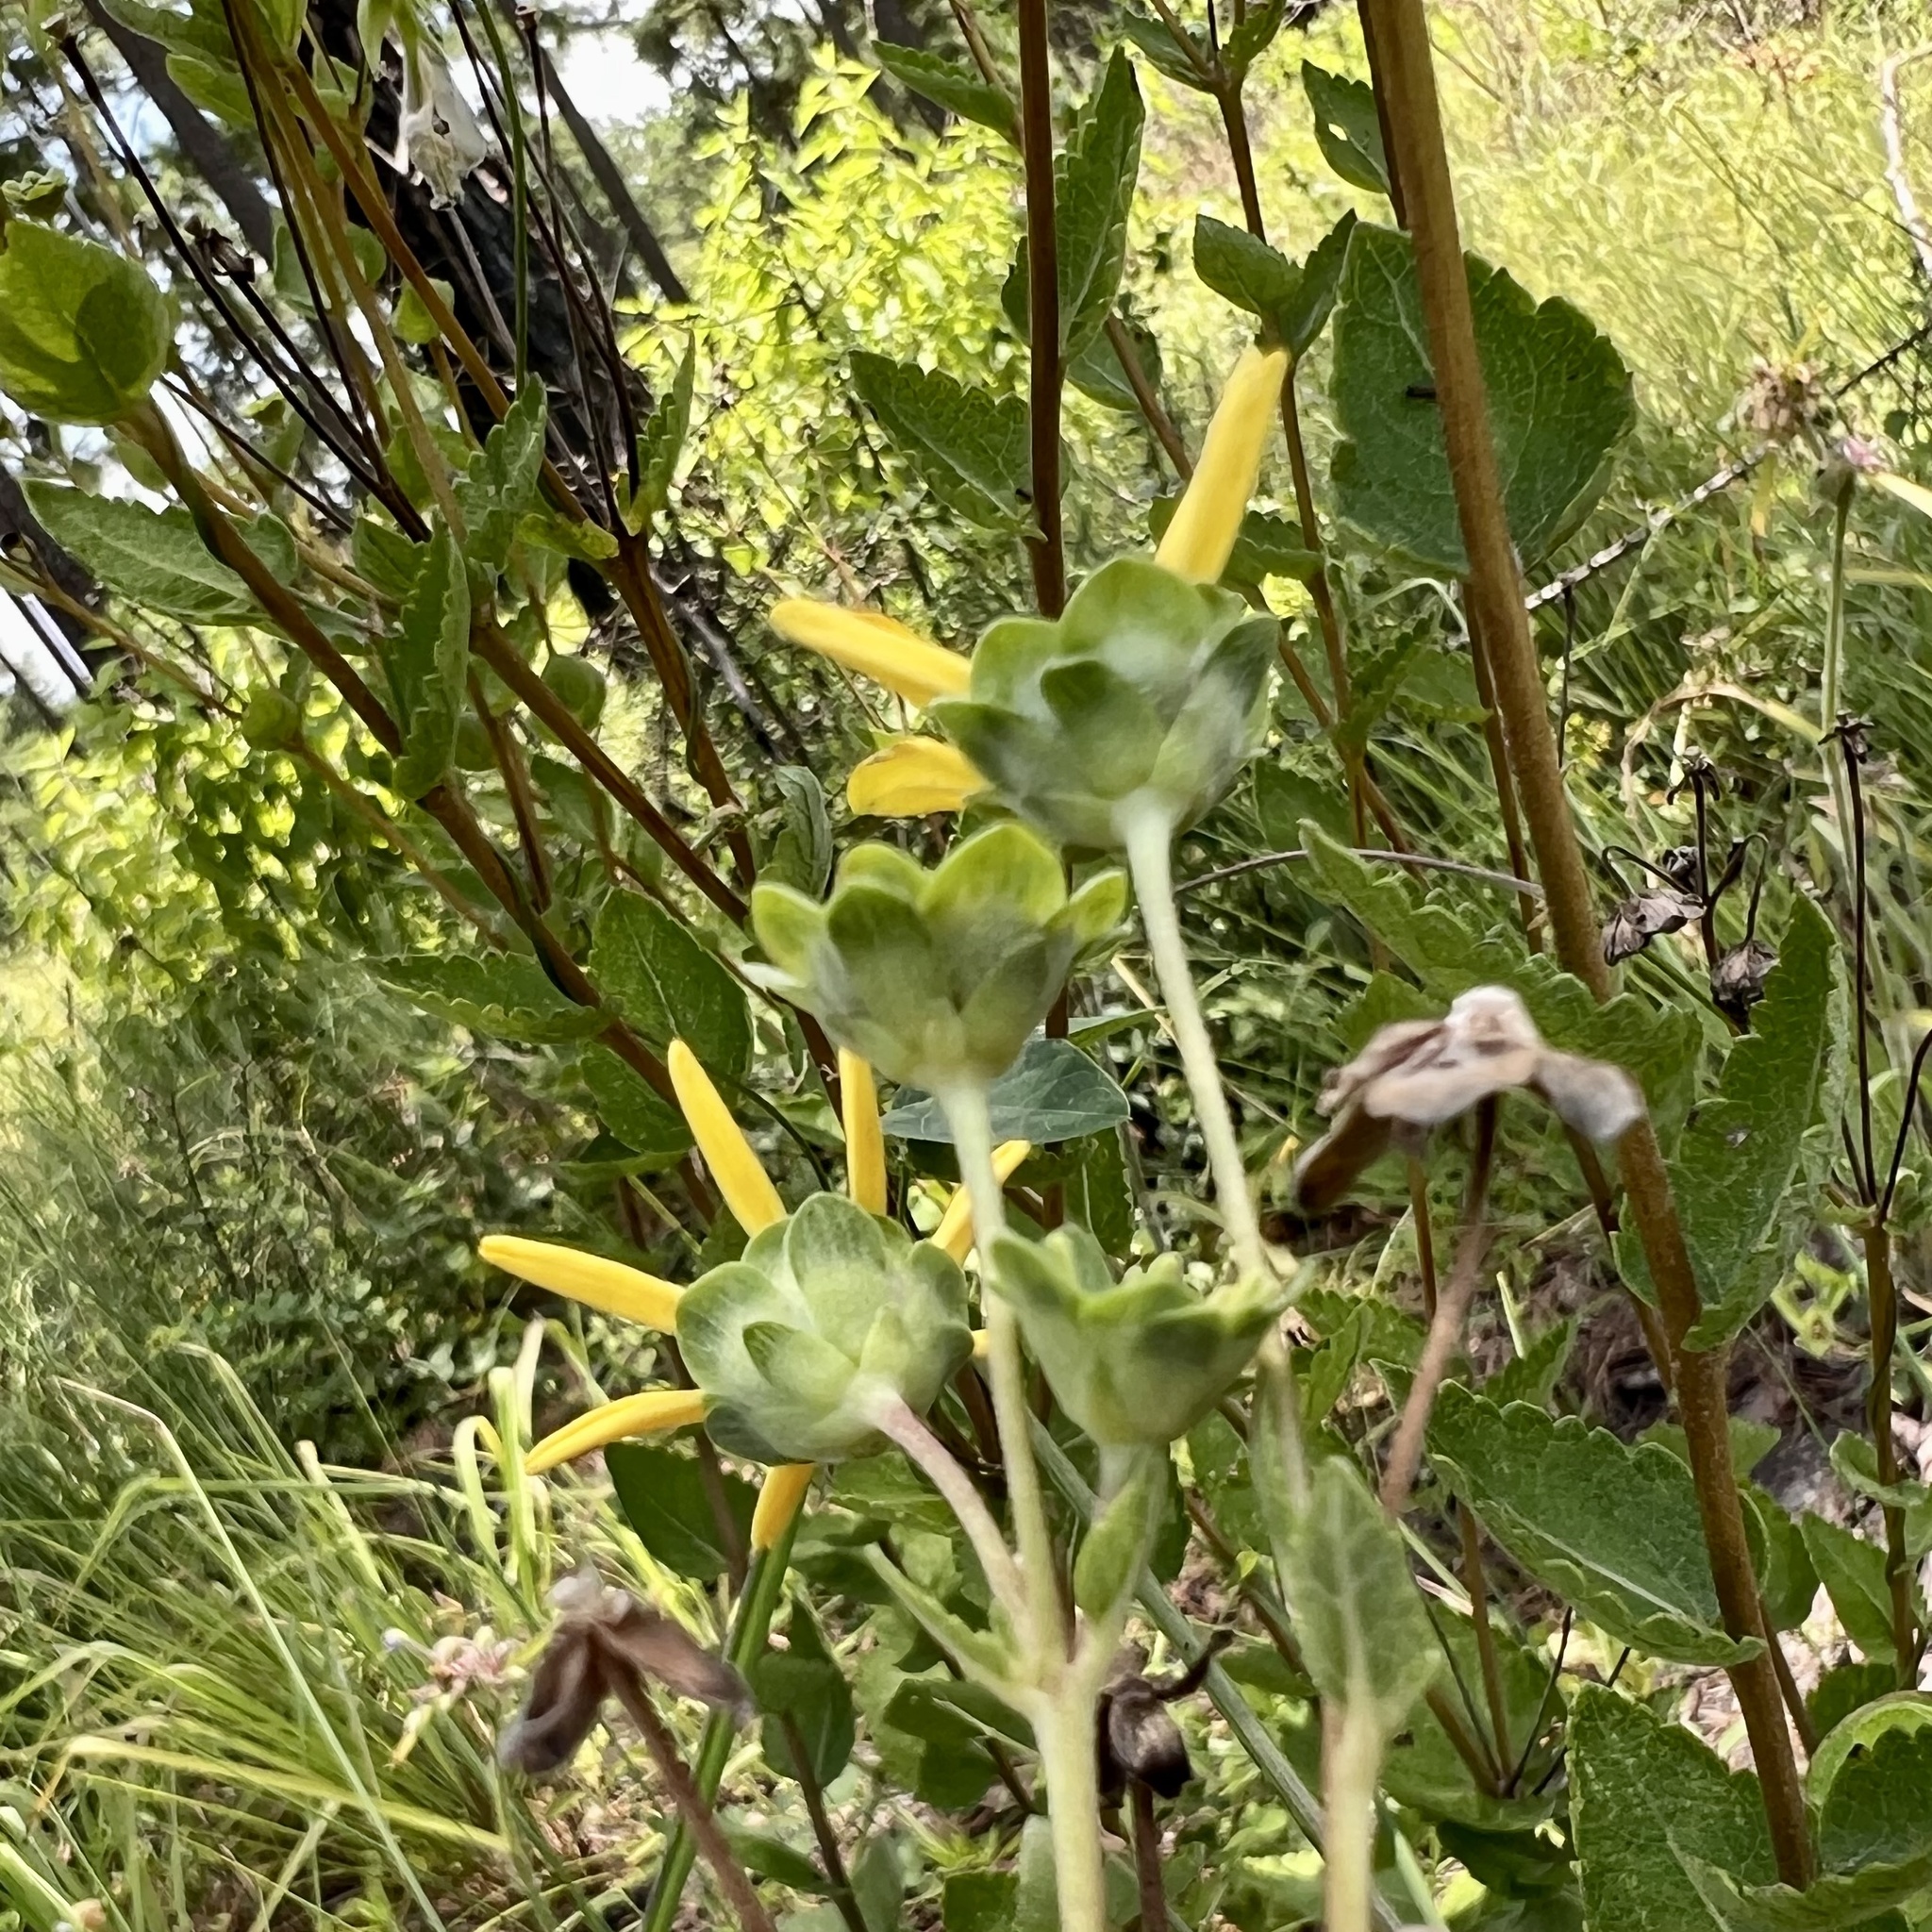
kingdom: Plantae
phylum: Tracheophyta
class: Magnoliopsida
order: Asterales
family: Asteraceae
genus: Berlandiera
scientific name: Berlandiera pumila
